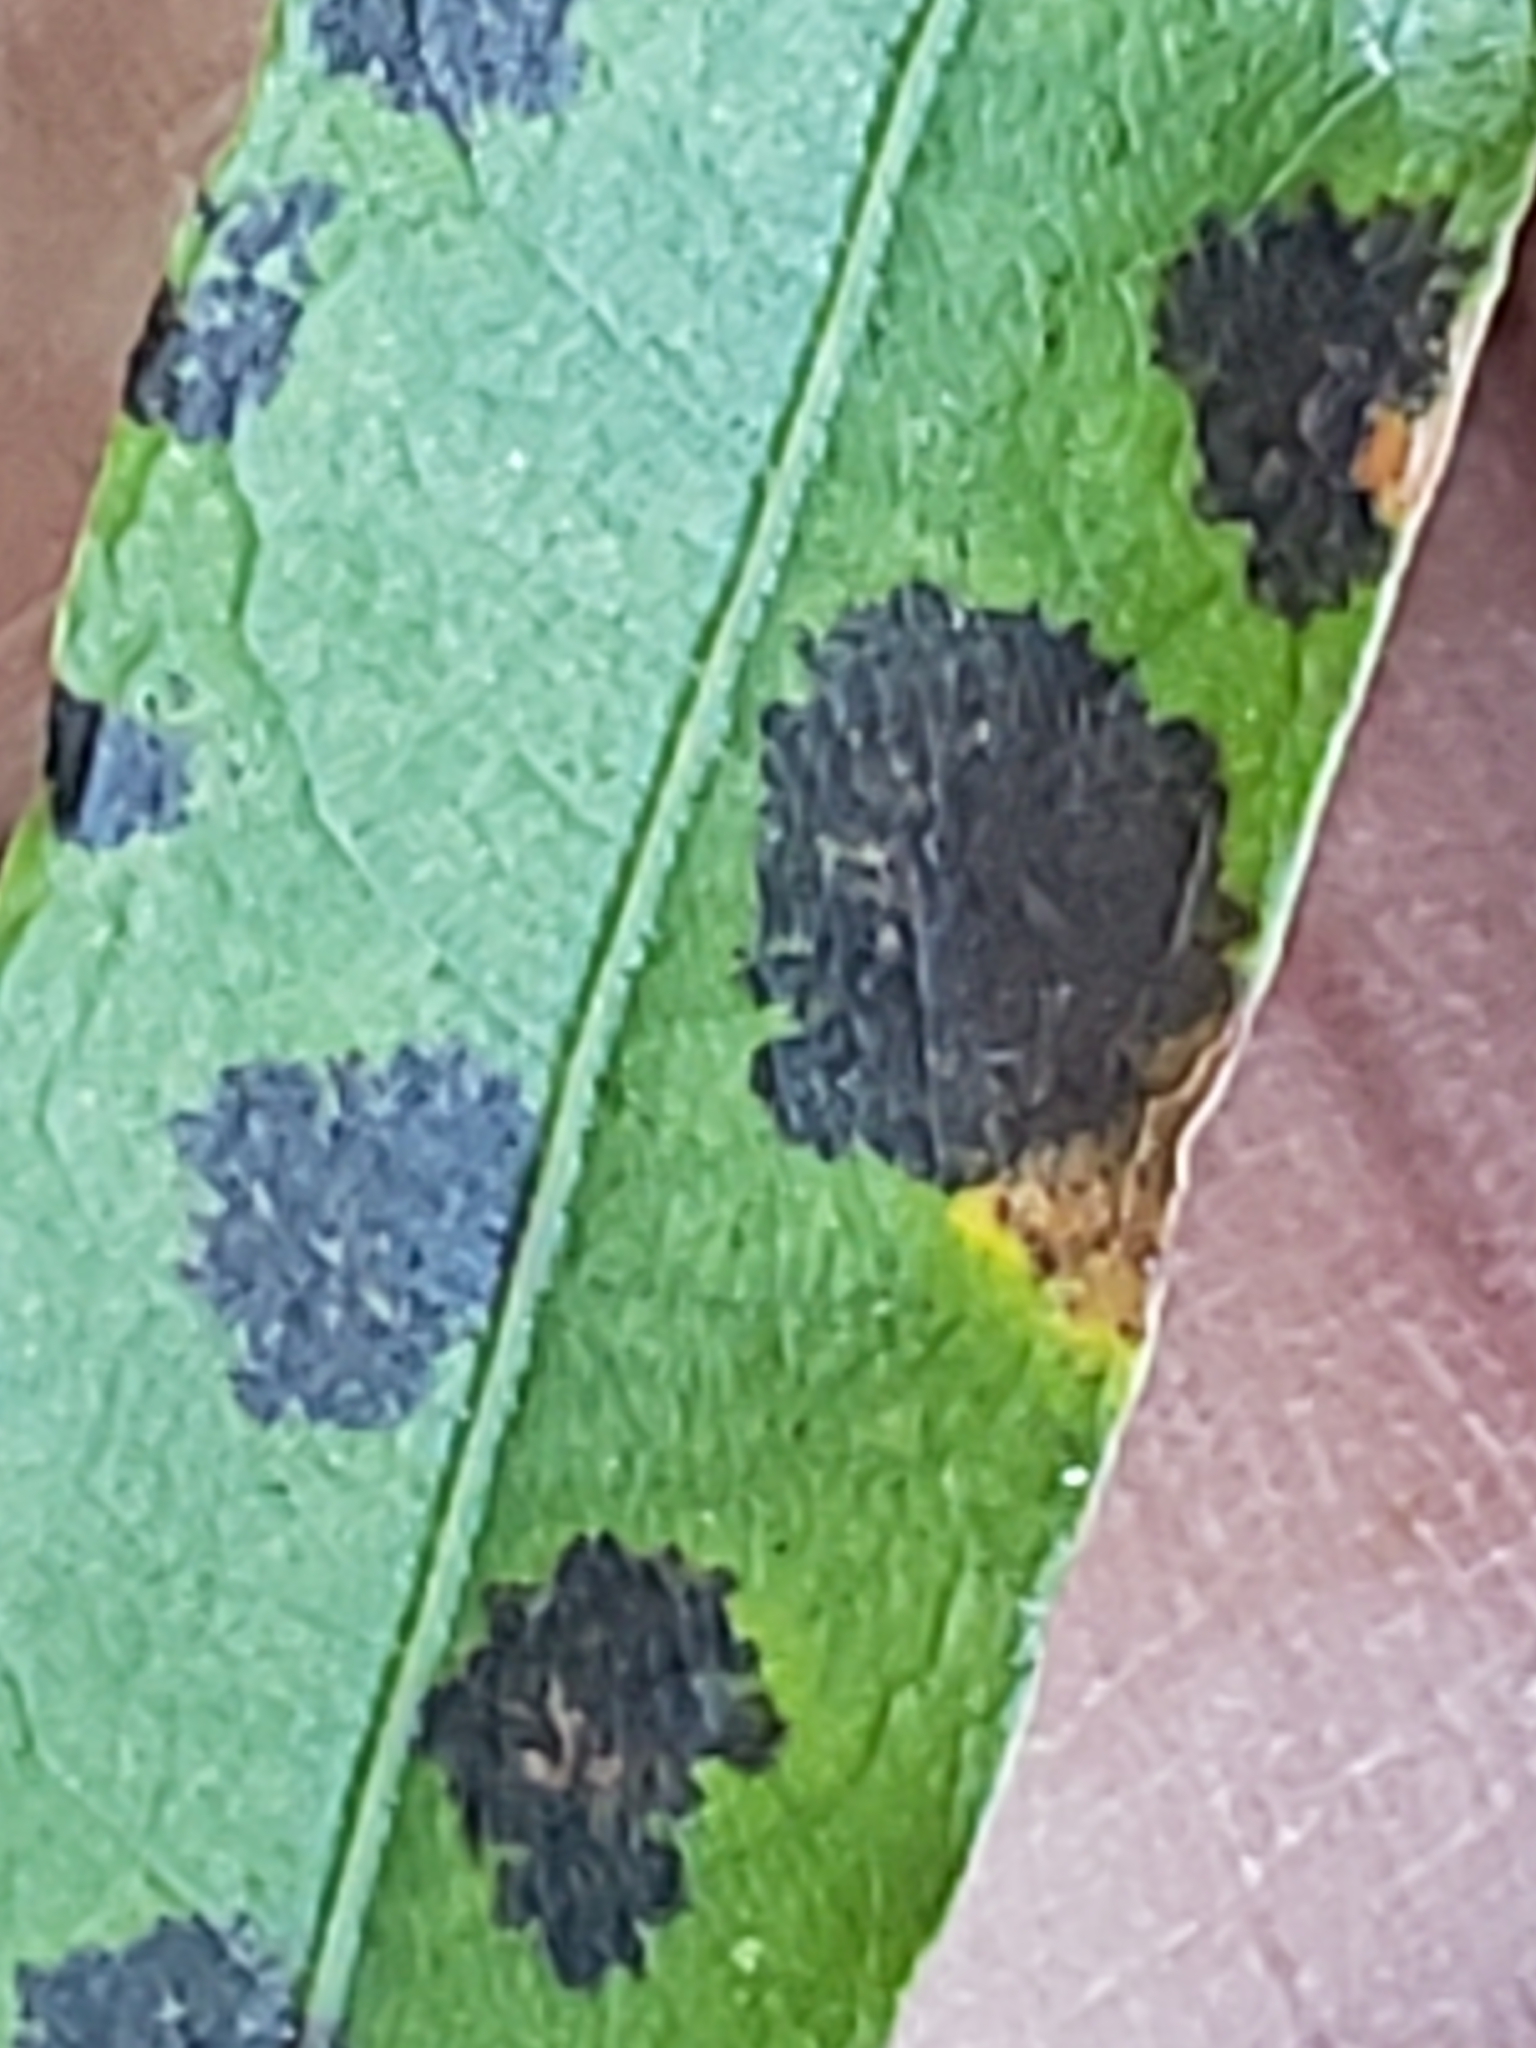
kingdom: Fungi
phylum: Ascomycota
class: Sordariomycetes
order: Diaporthales
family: Gnomoniaceae
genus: Apiognomonia
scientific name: Apiognomonia errabunda
